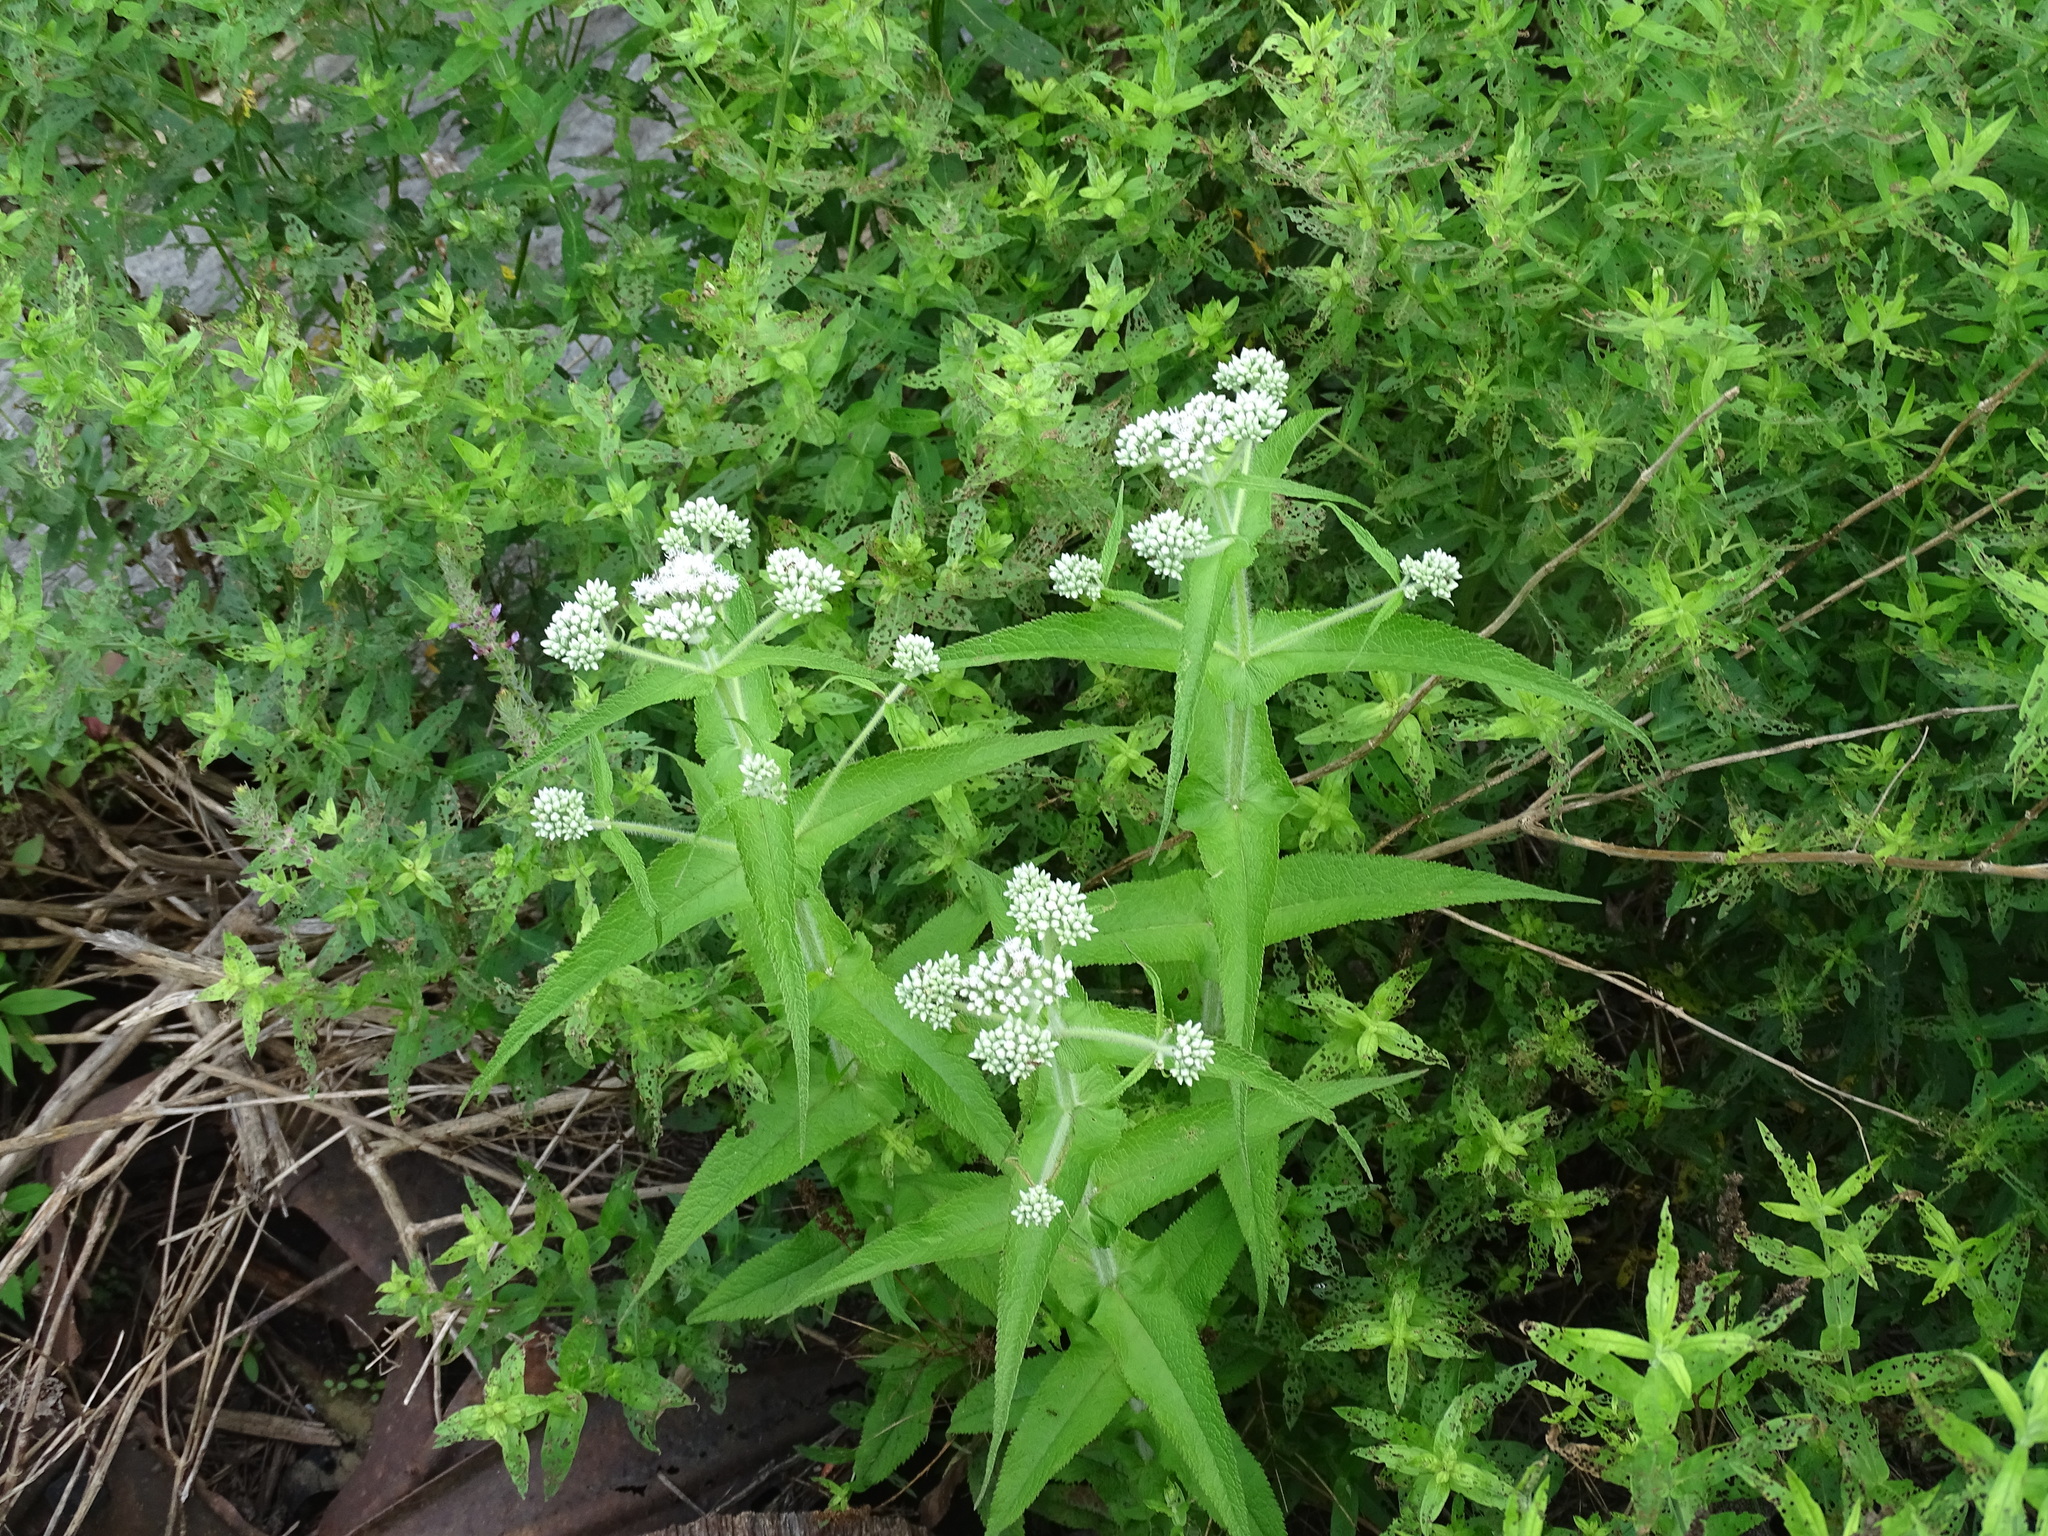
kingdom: Plantae
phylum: Tracheophyta
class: Magnoliopsida
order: Asterales
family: Asteraceae
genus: Eupatorium
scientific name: Eupatorium perfoliatum
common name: Boneset
